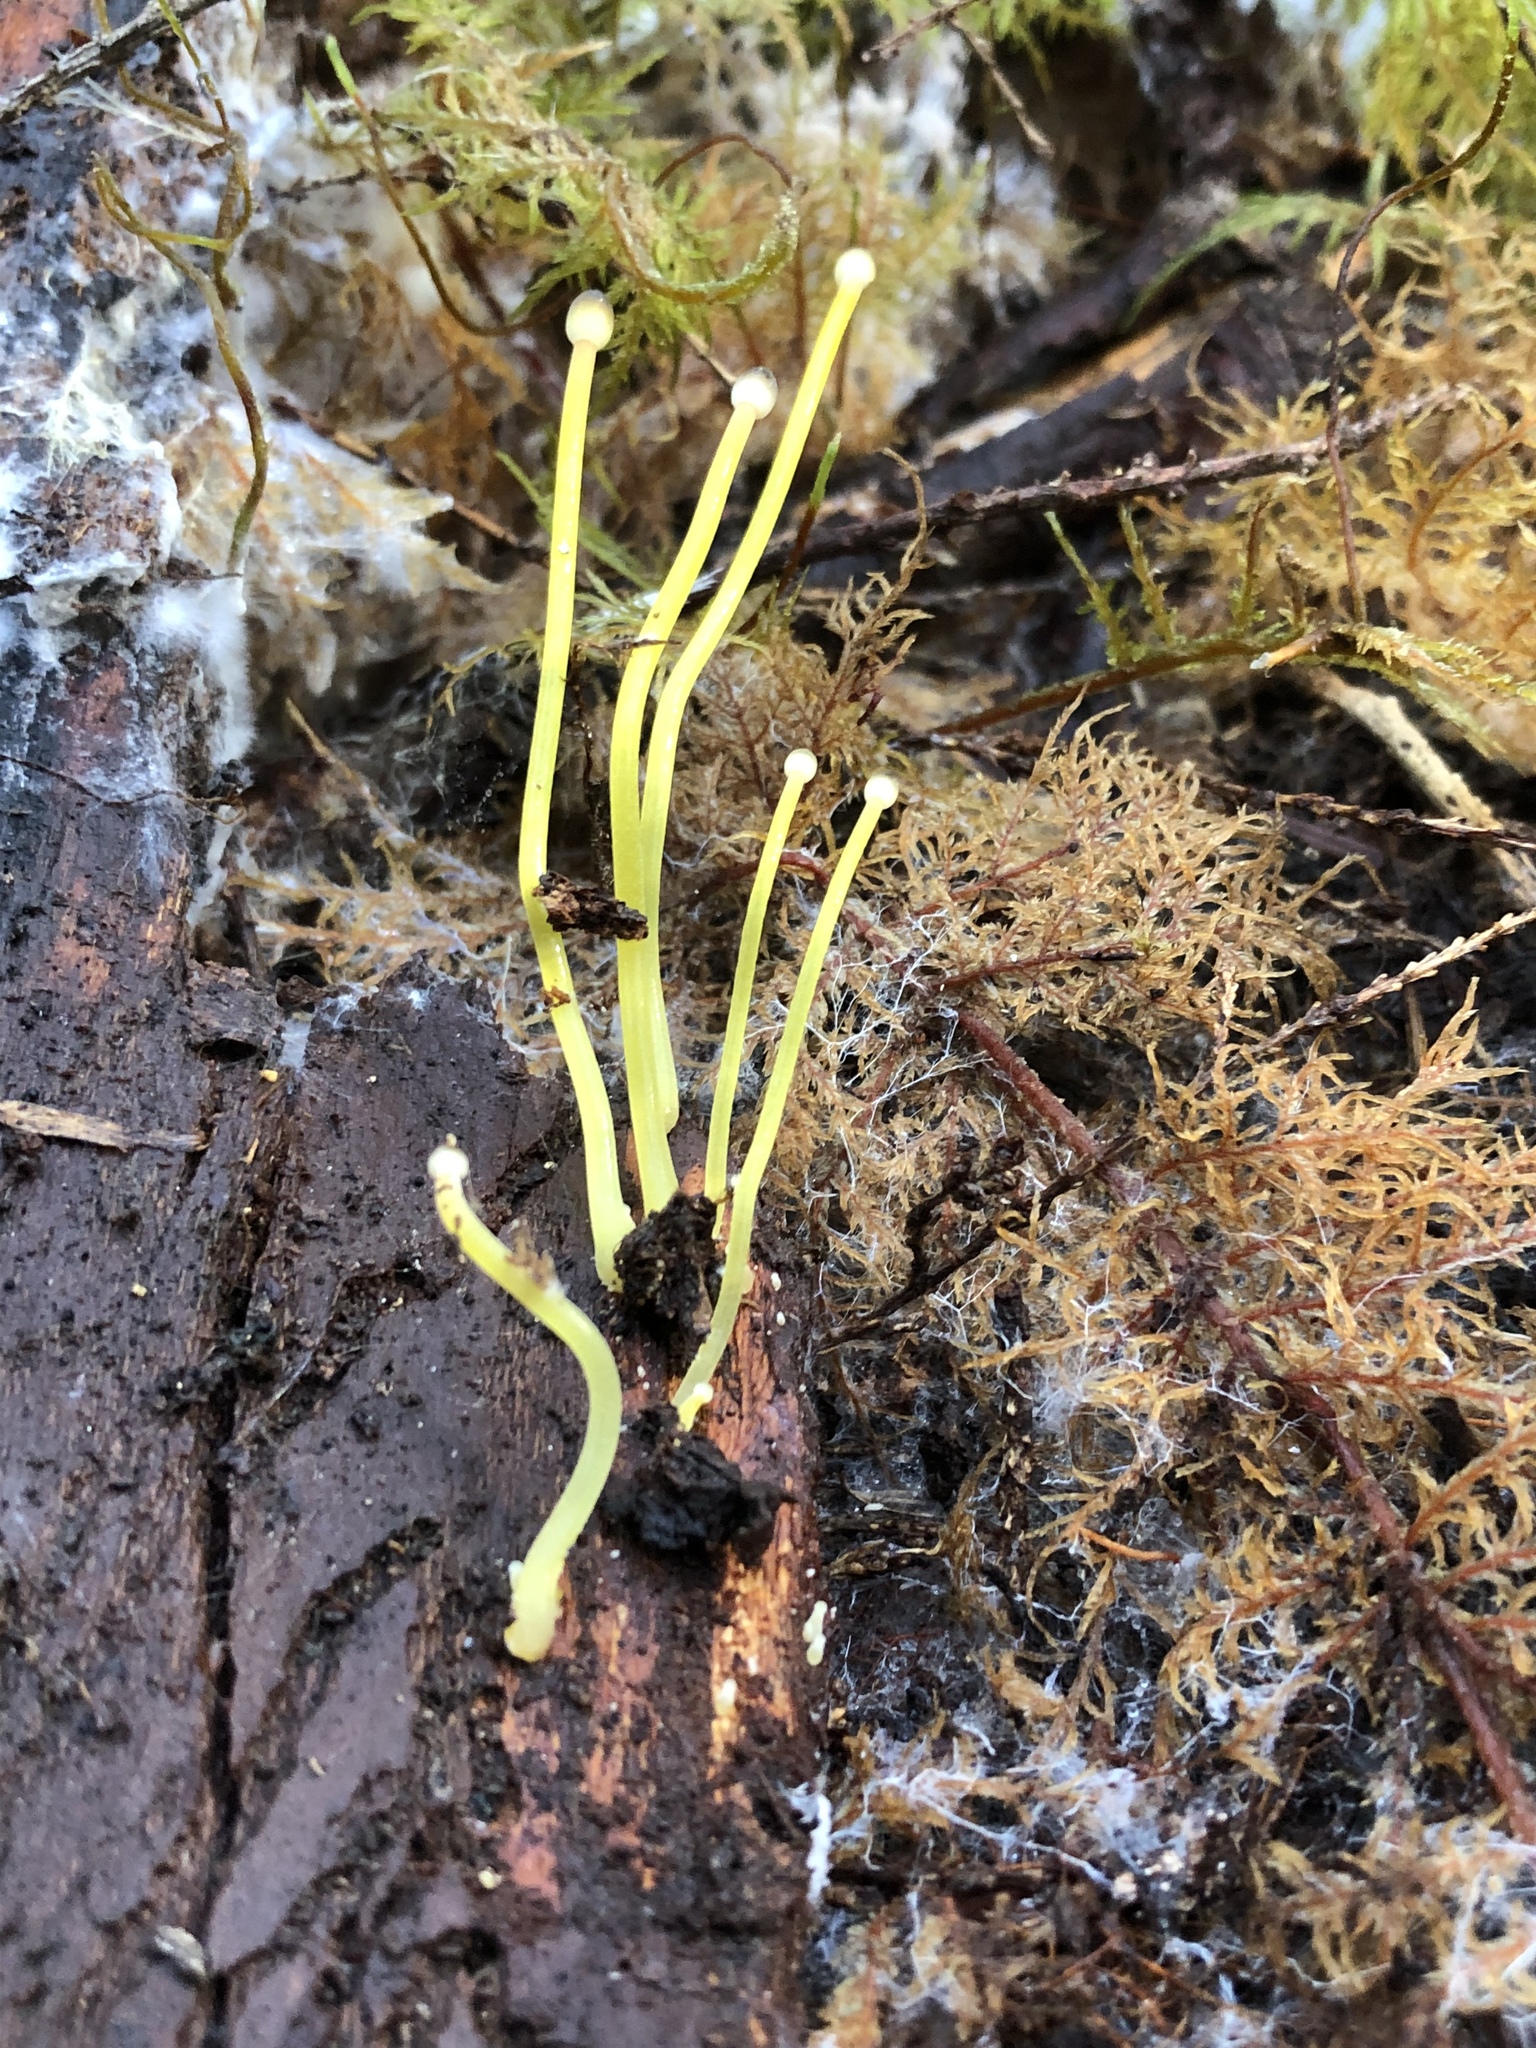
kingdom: Fungi
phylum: Basidiomycota
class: Agaricomycetes
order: Agaricales
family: Mycenaceae
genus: Mycena
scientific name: Mycena epipterygia
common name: Yellowleg bonnet
